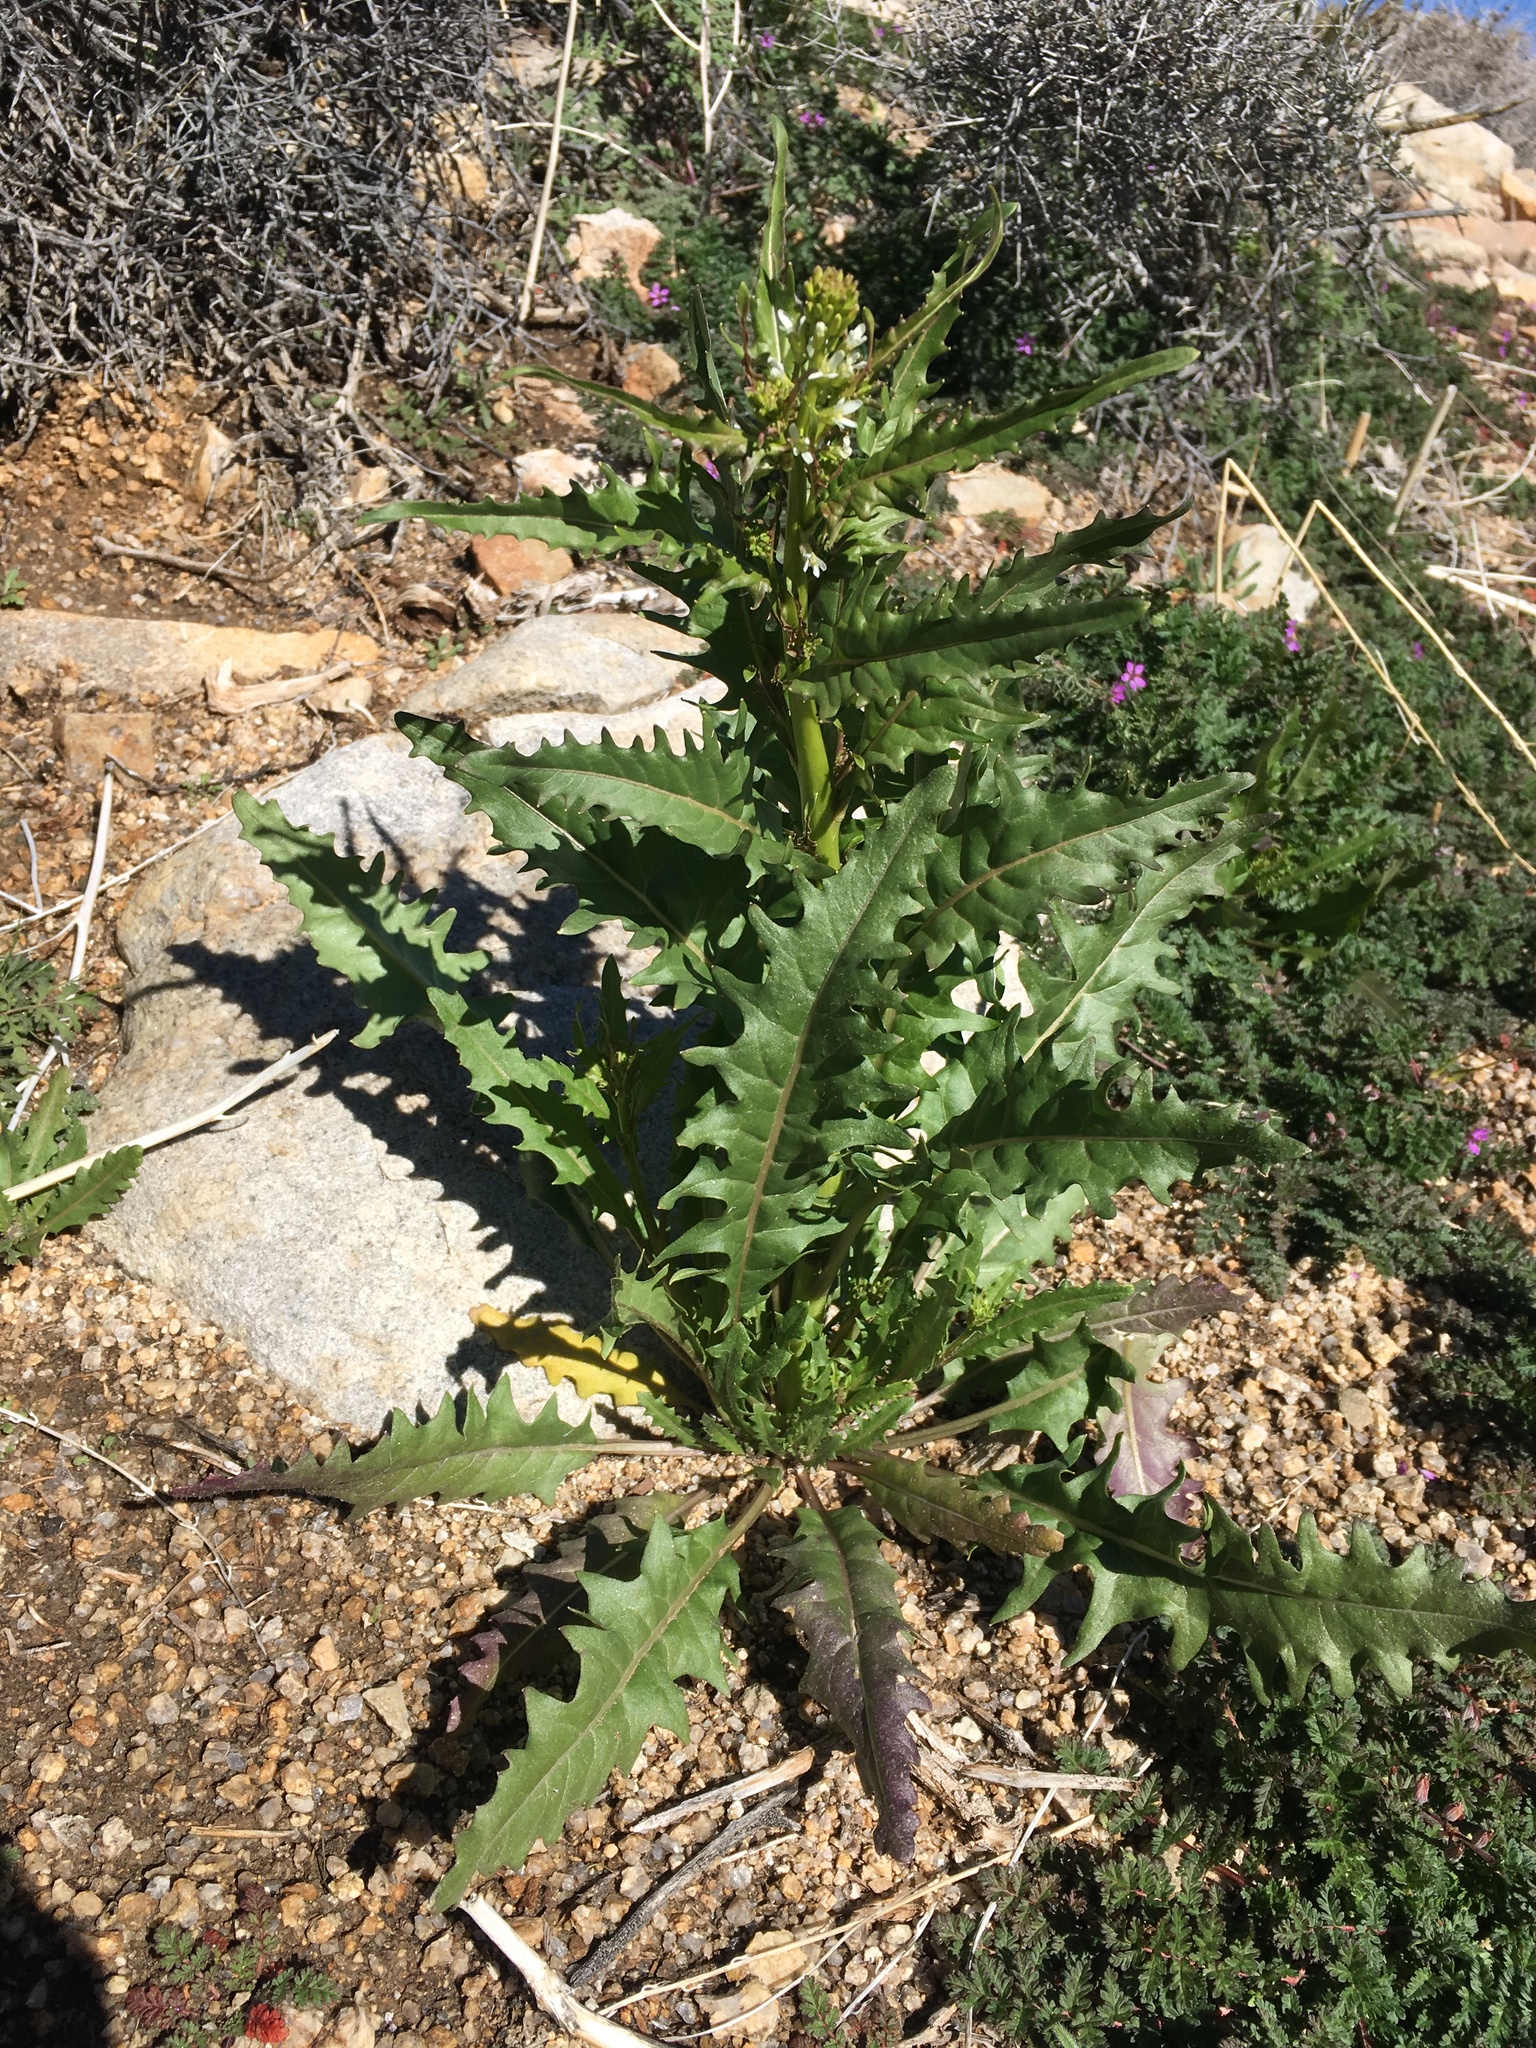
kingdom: Plantae
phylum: Tracheophyta
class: Magnoliopsida
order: Brassicales
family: Brassicaceae
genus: Streptanthus
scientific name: Streptanthus lasiophyllus
